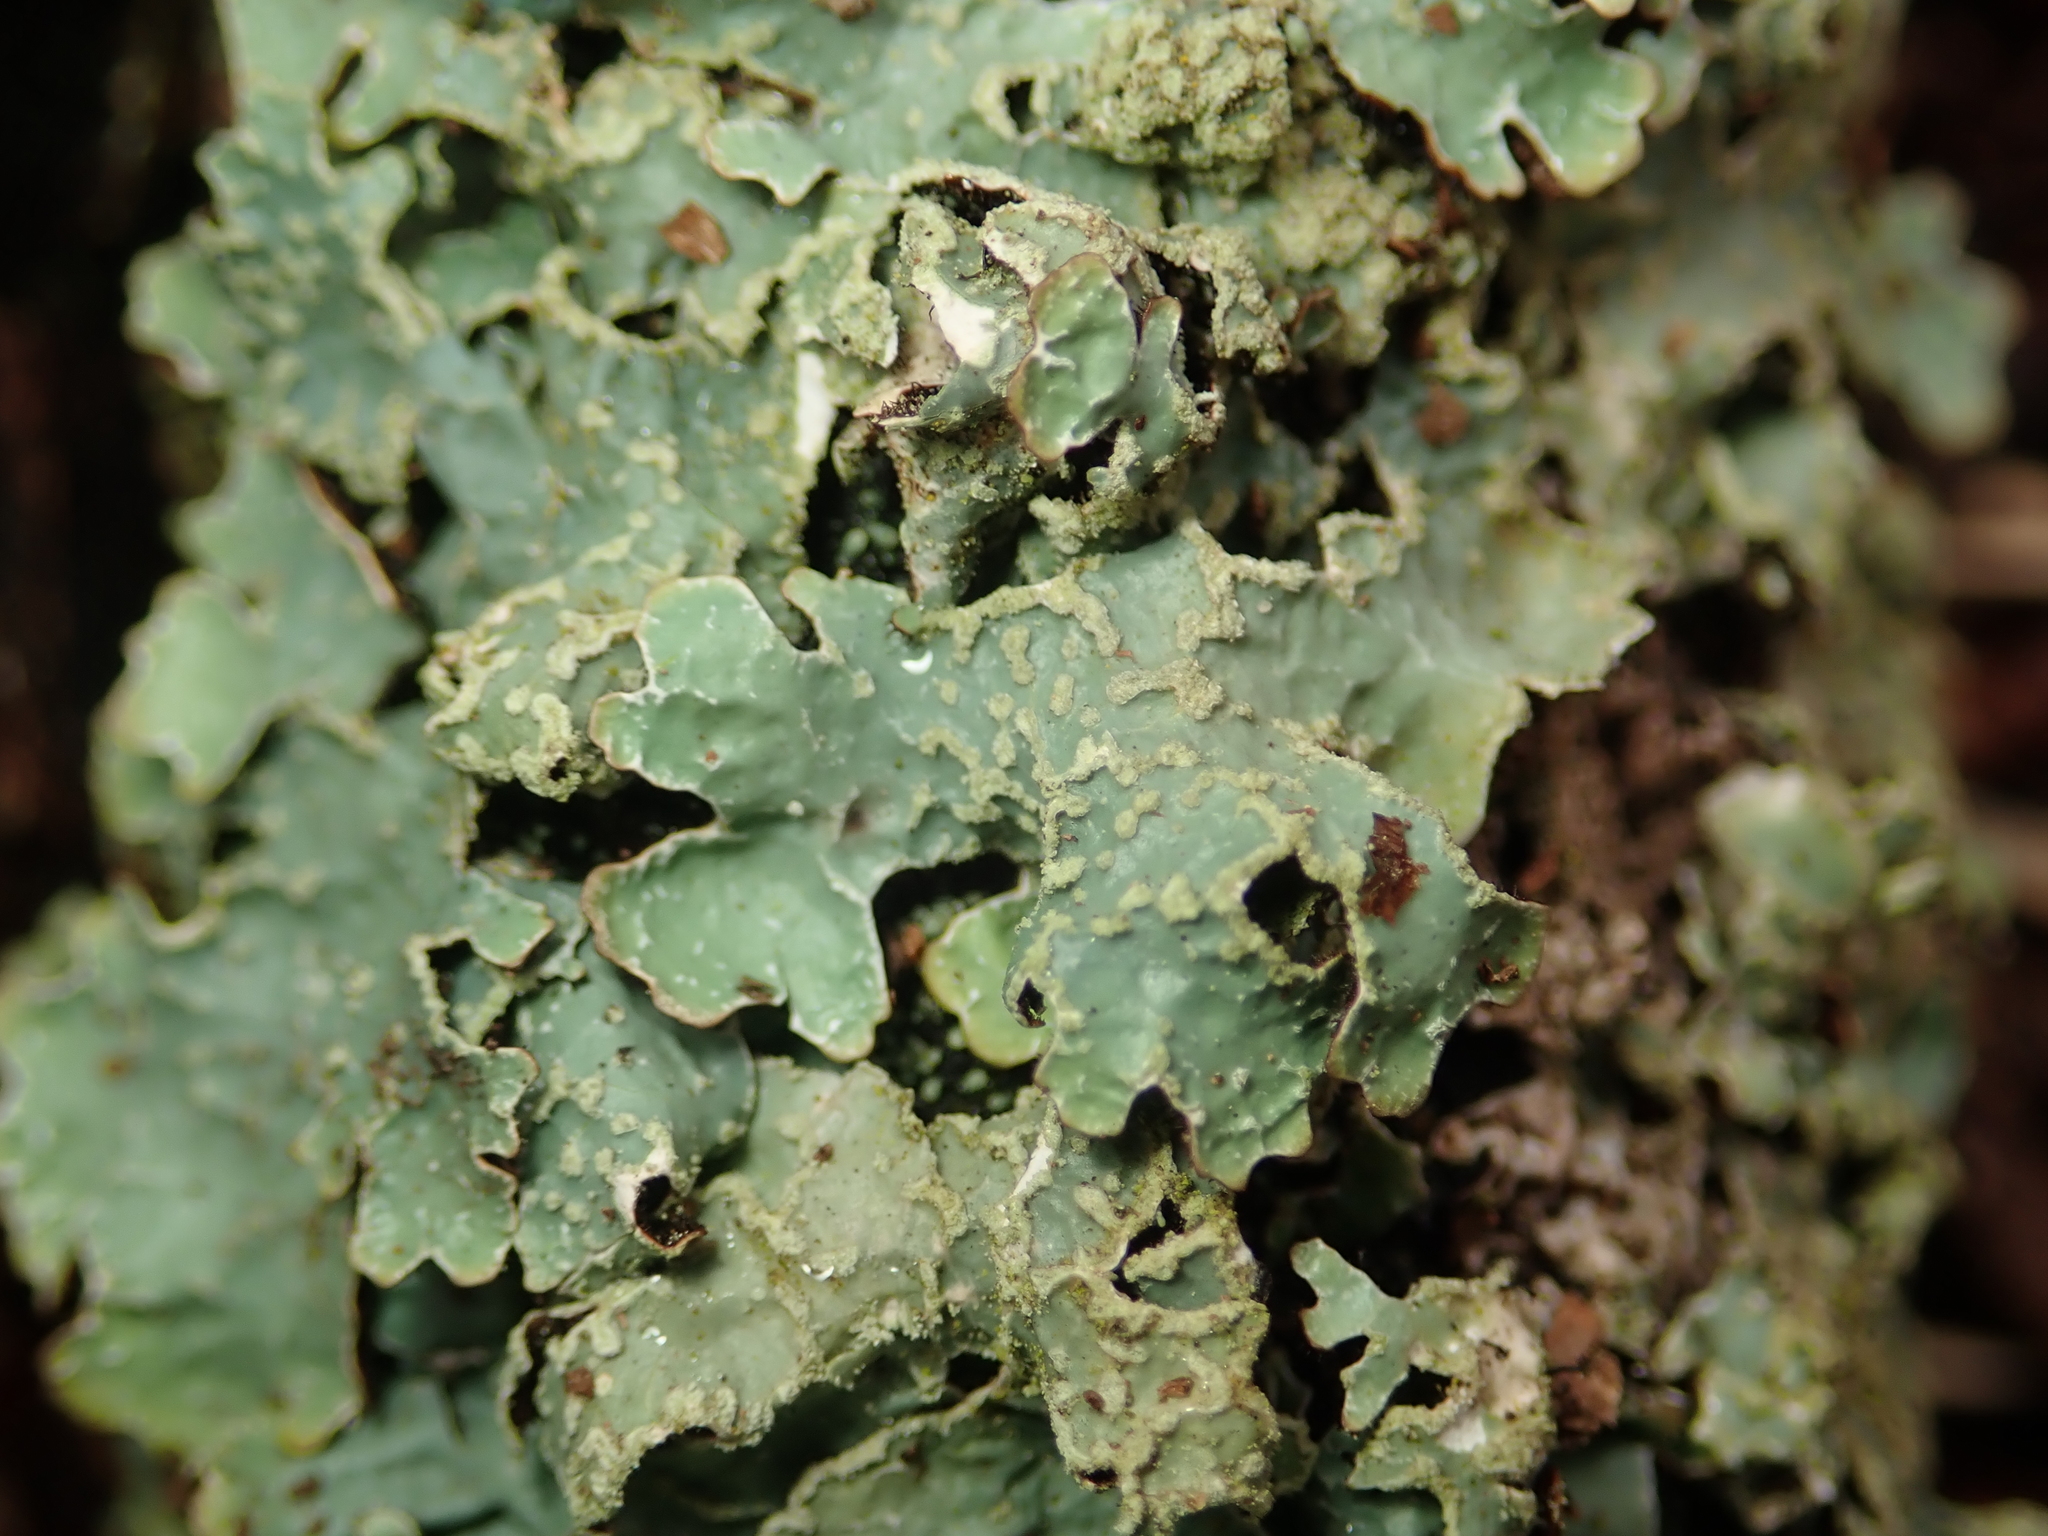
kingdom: Fungi
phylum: Ascomycota
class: Lecanoromycetes
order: Lecanorales
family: Parmeliaceae
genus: Parmelia
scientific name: Parmelia sulcata
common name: Netted shield lichen
